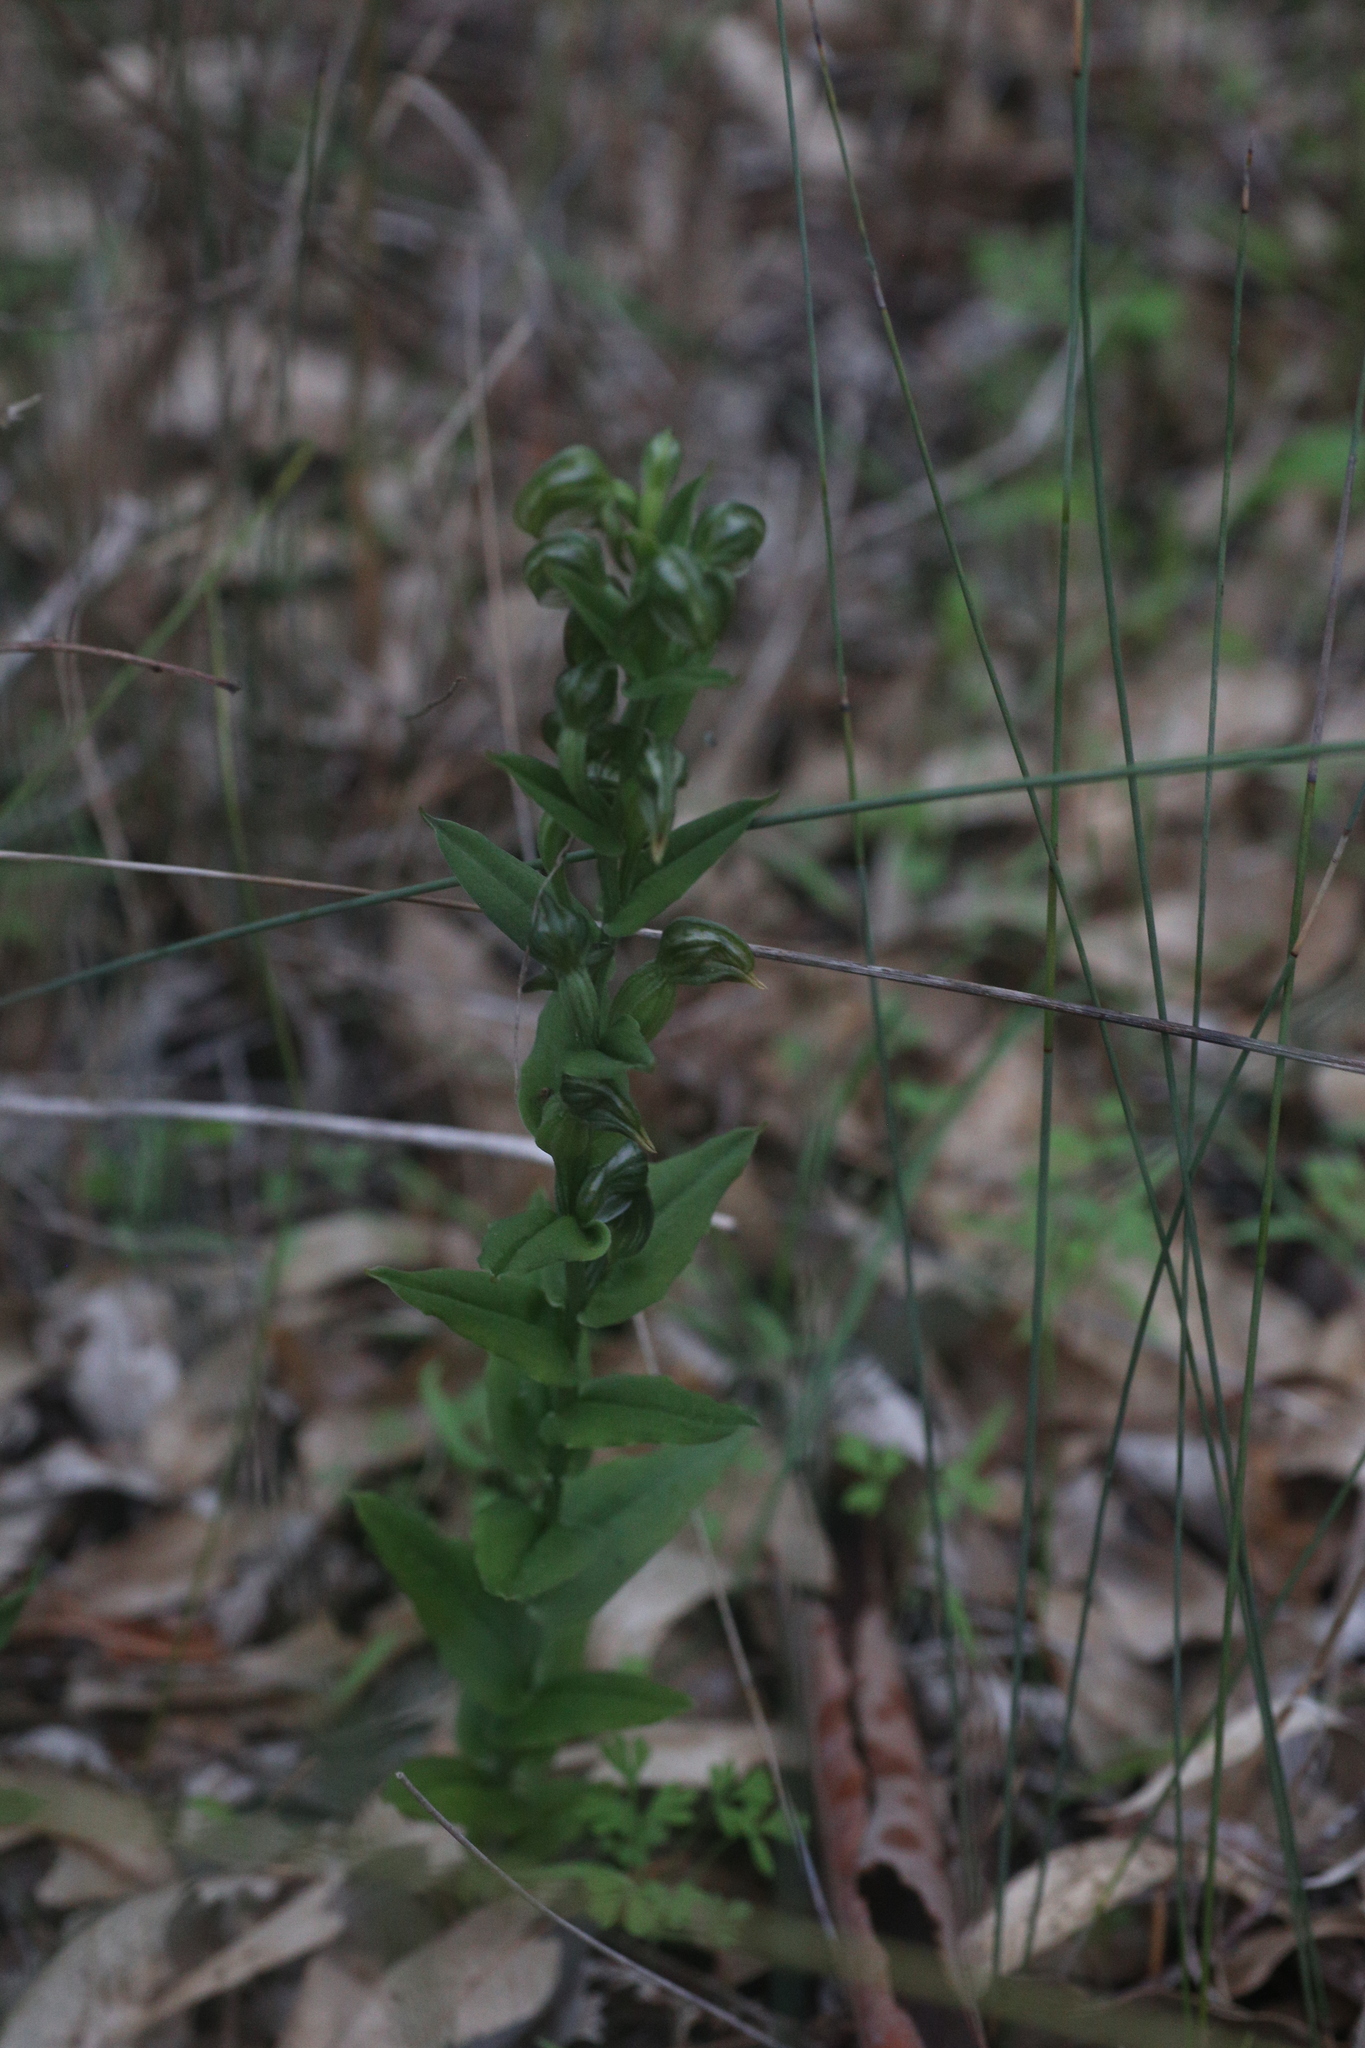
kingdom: Plantae
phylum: Tracheophyta
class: Liliopsida
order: Asparagales
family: Orchidaceae
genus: Pterostylis
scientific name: Pterostylis vittata
